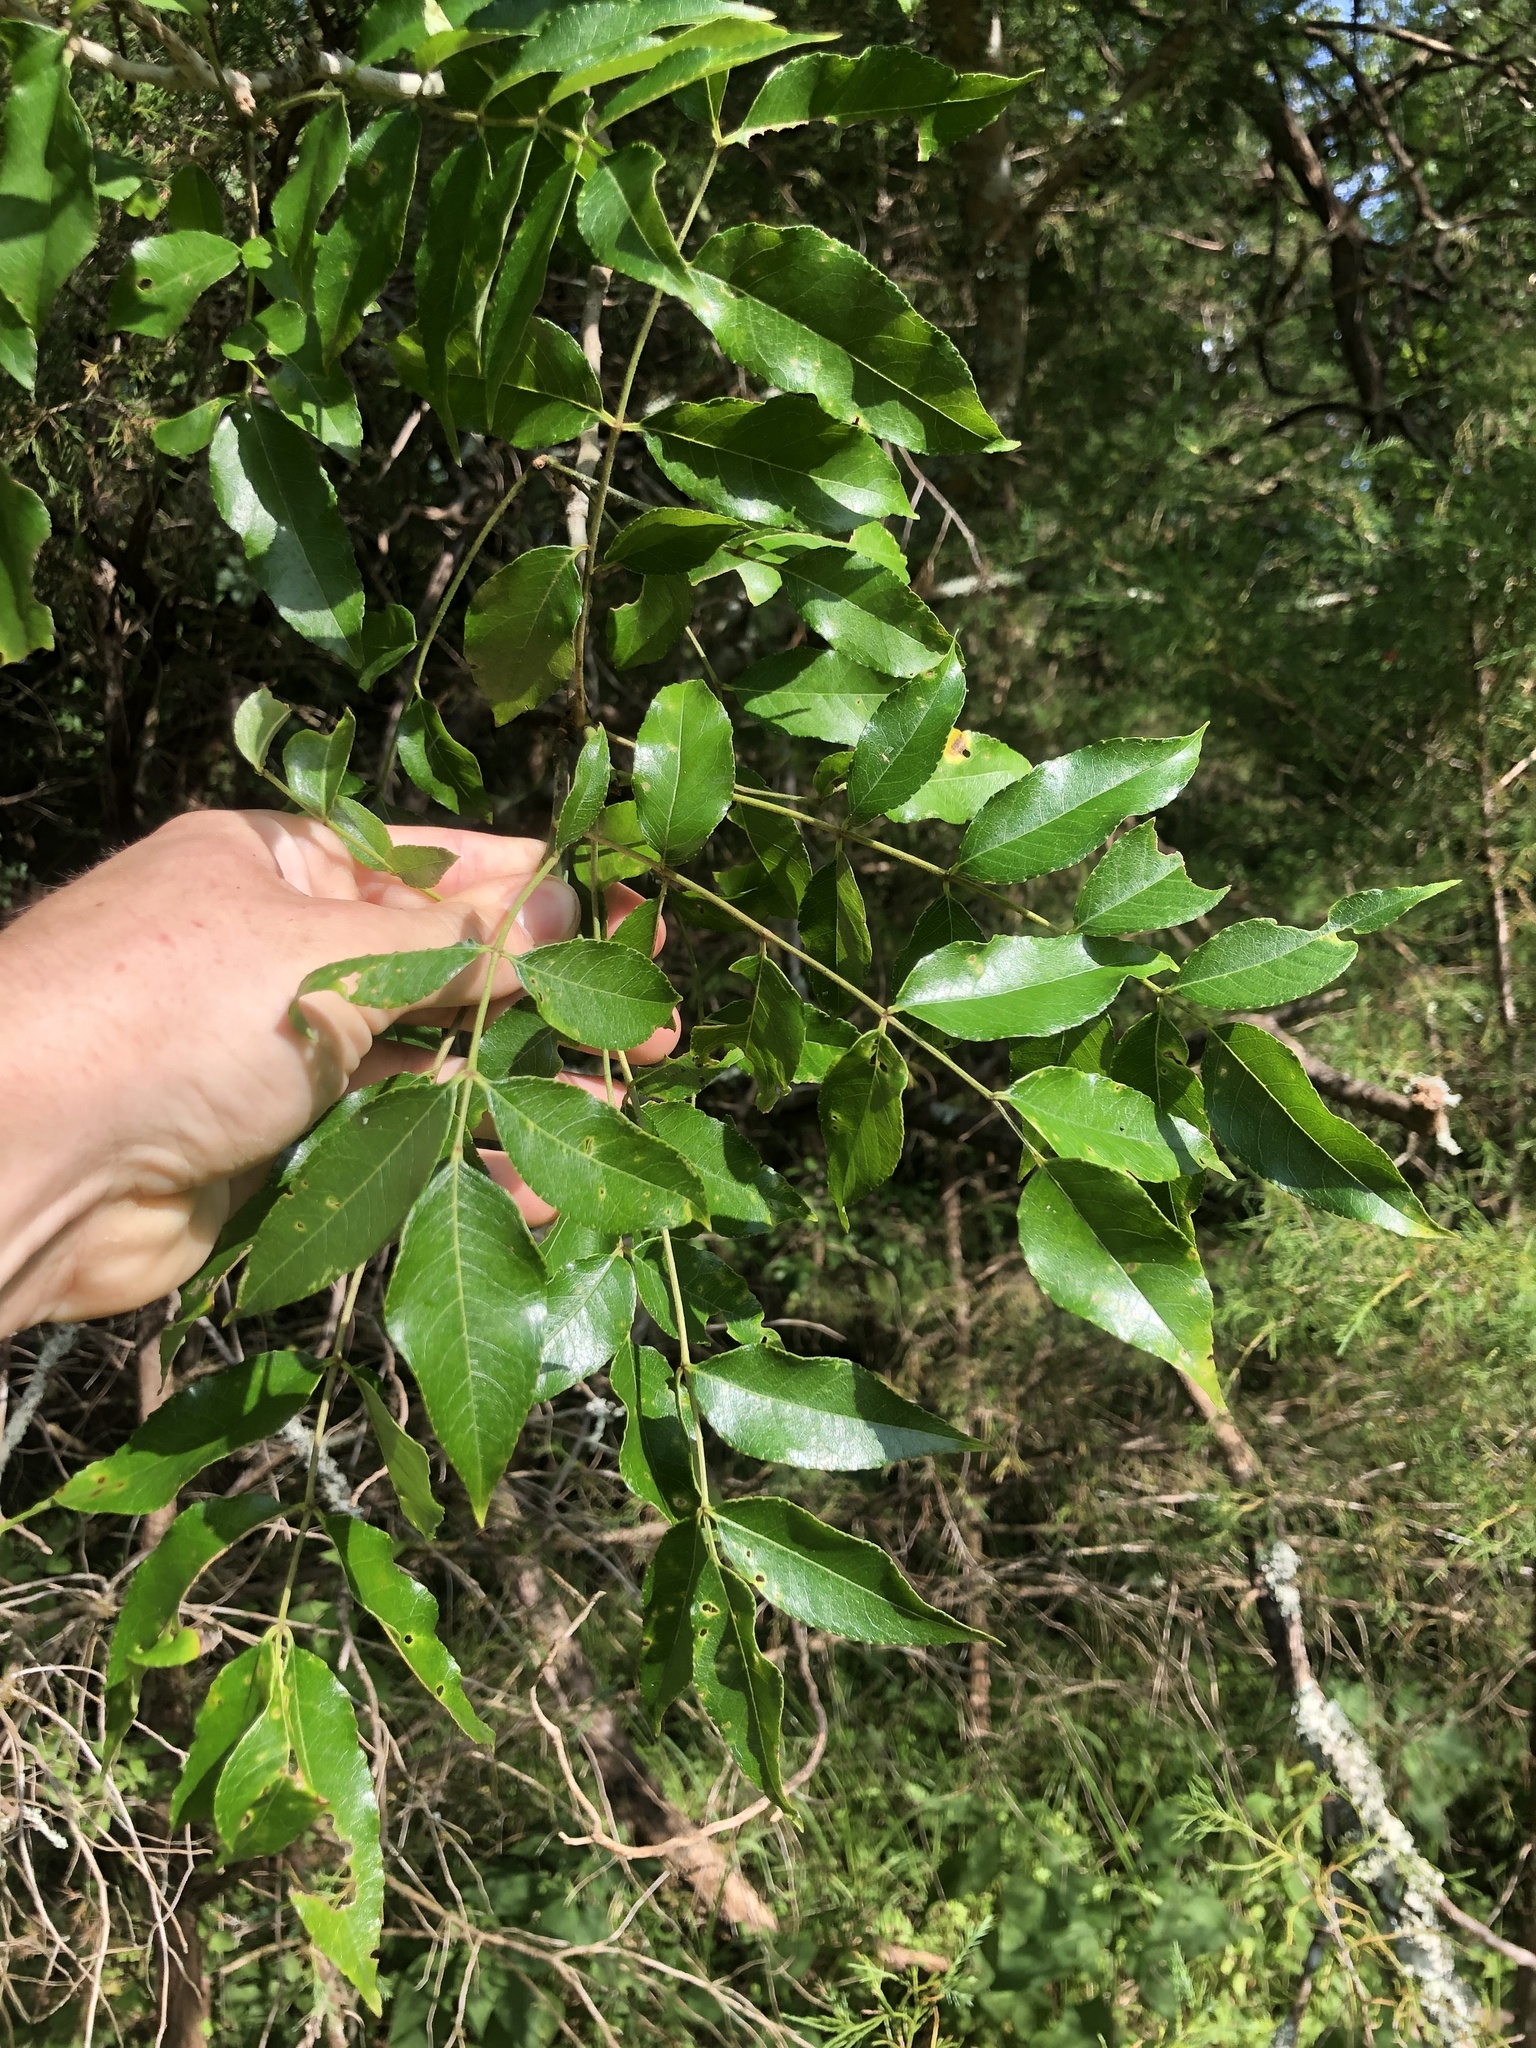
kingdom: Plantae
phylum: Tracheophyta
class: Magnoliopsida
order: Sapindales
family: Rutaceae
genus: Zanthoxylum
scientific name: Zanthoxylum clava-herculis
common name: Hercules'-club
